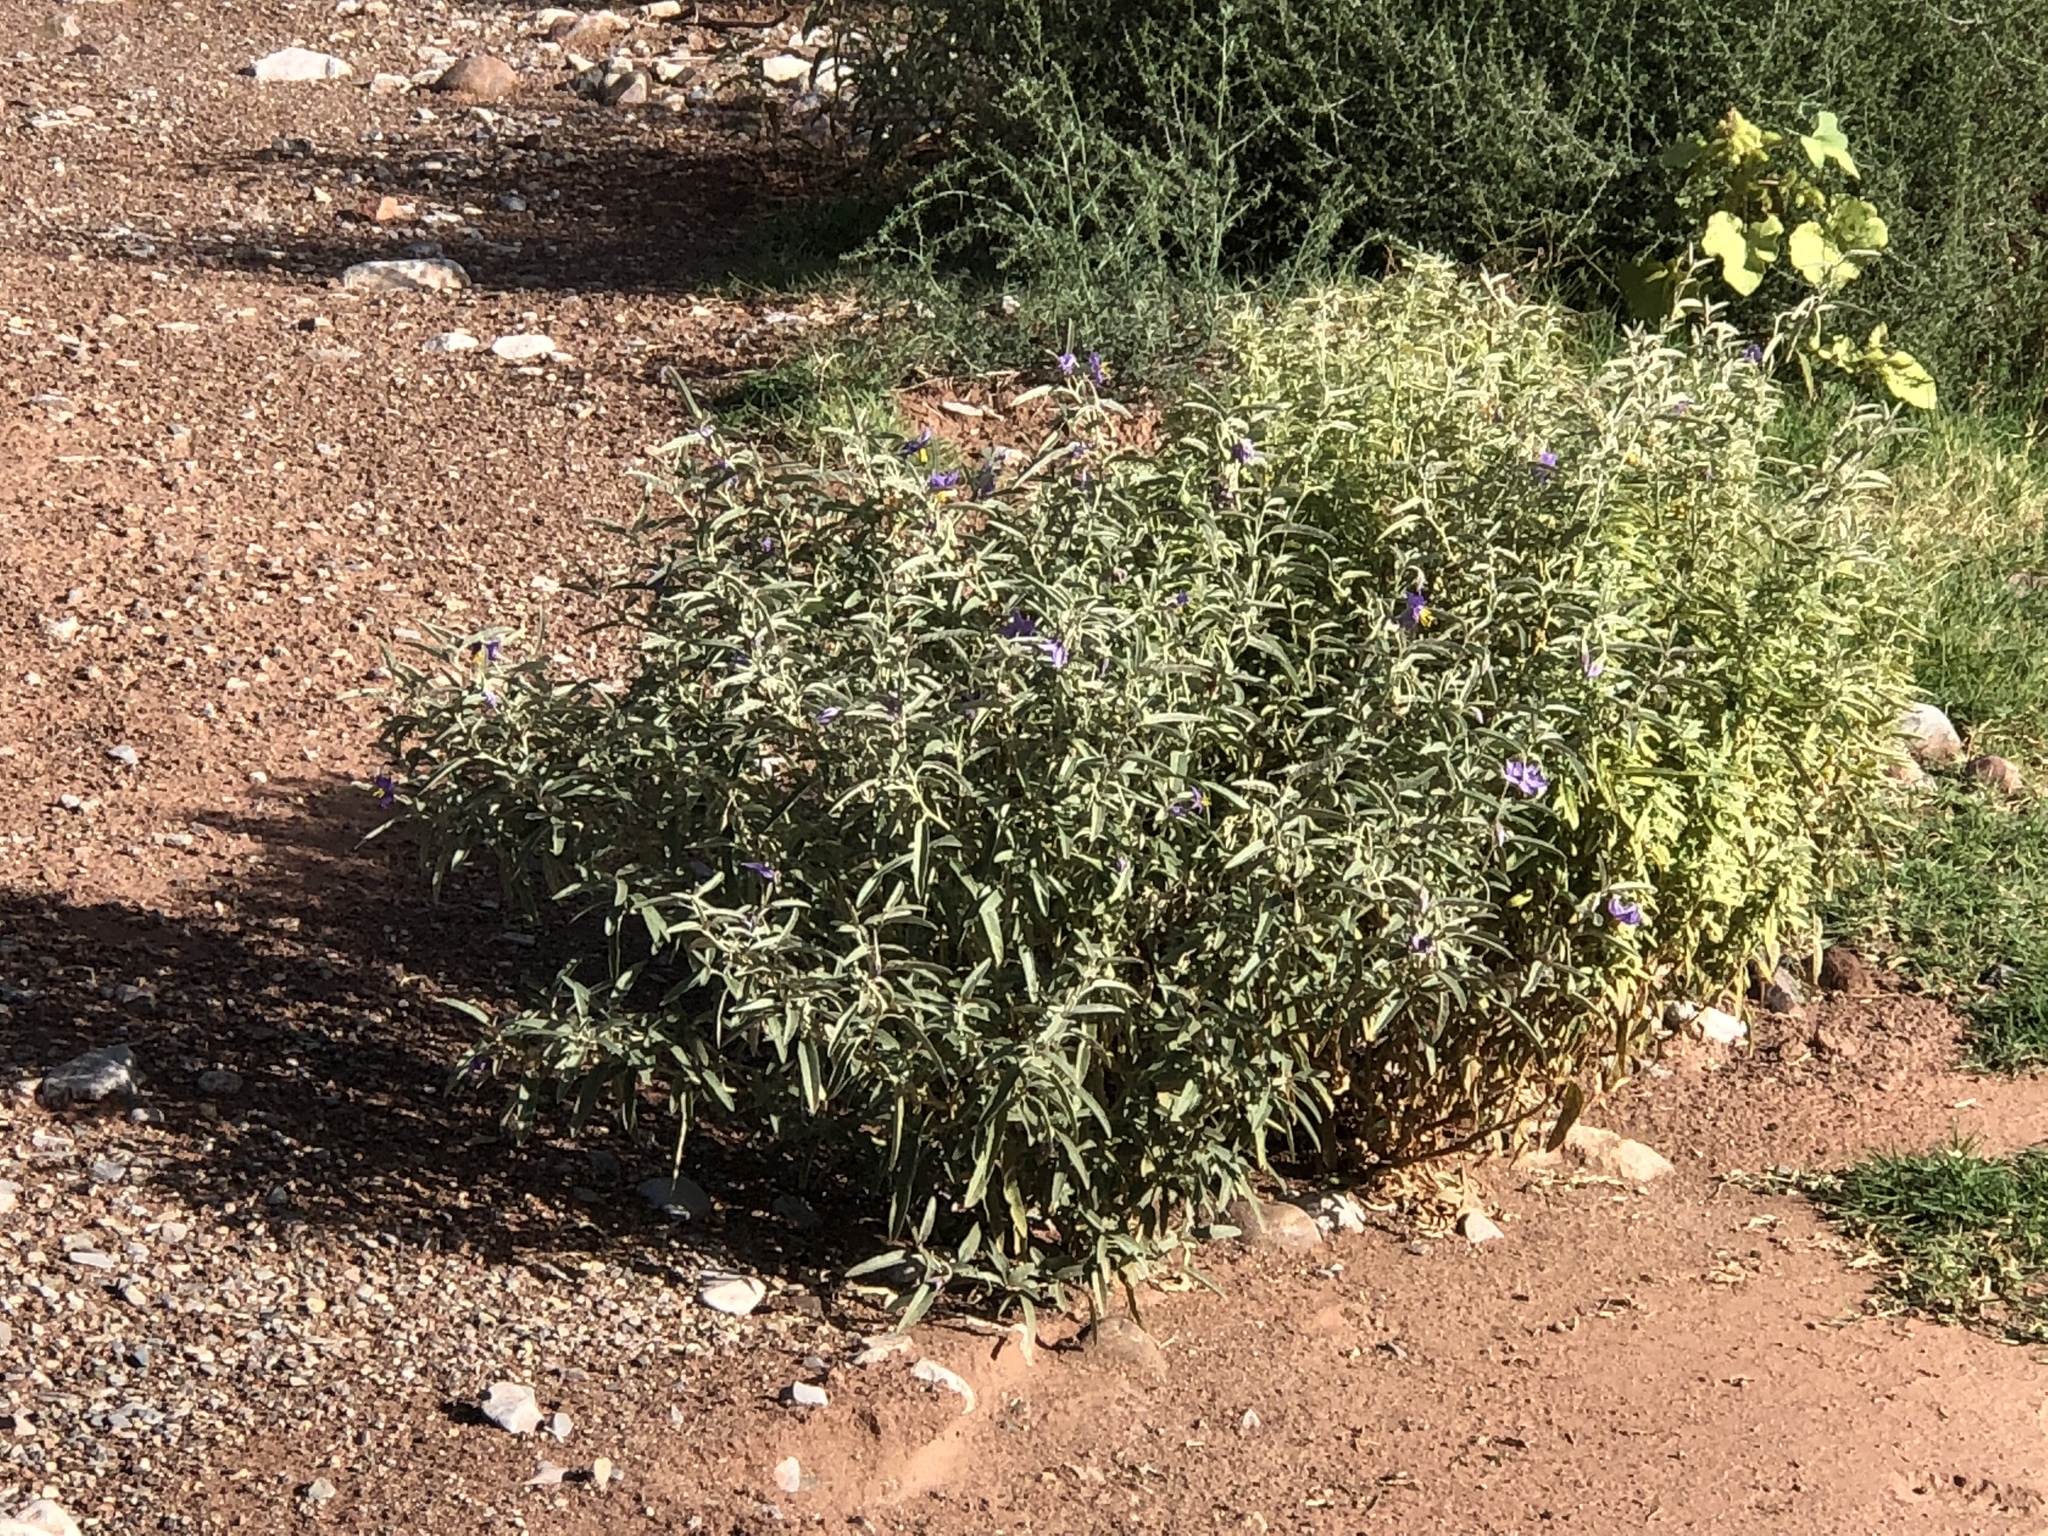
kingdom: Plantae
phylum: Tracheophyta
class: Magnoliopsida
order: Solanales
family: Solanaceae
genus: Solanum
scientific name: Solanum elaeagnifolium
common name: Silverleaf nightshade
